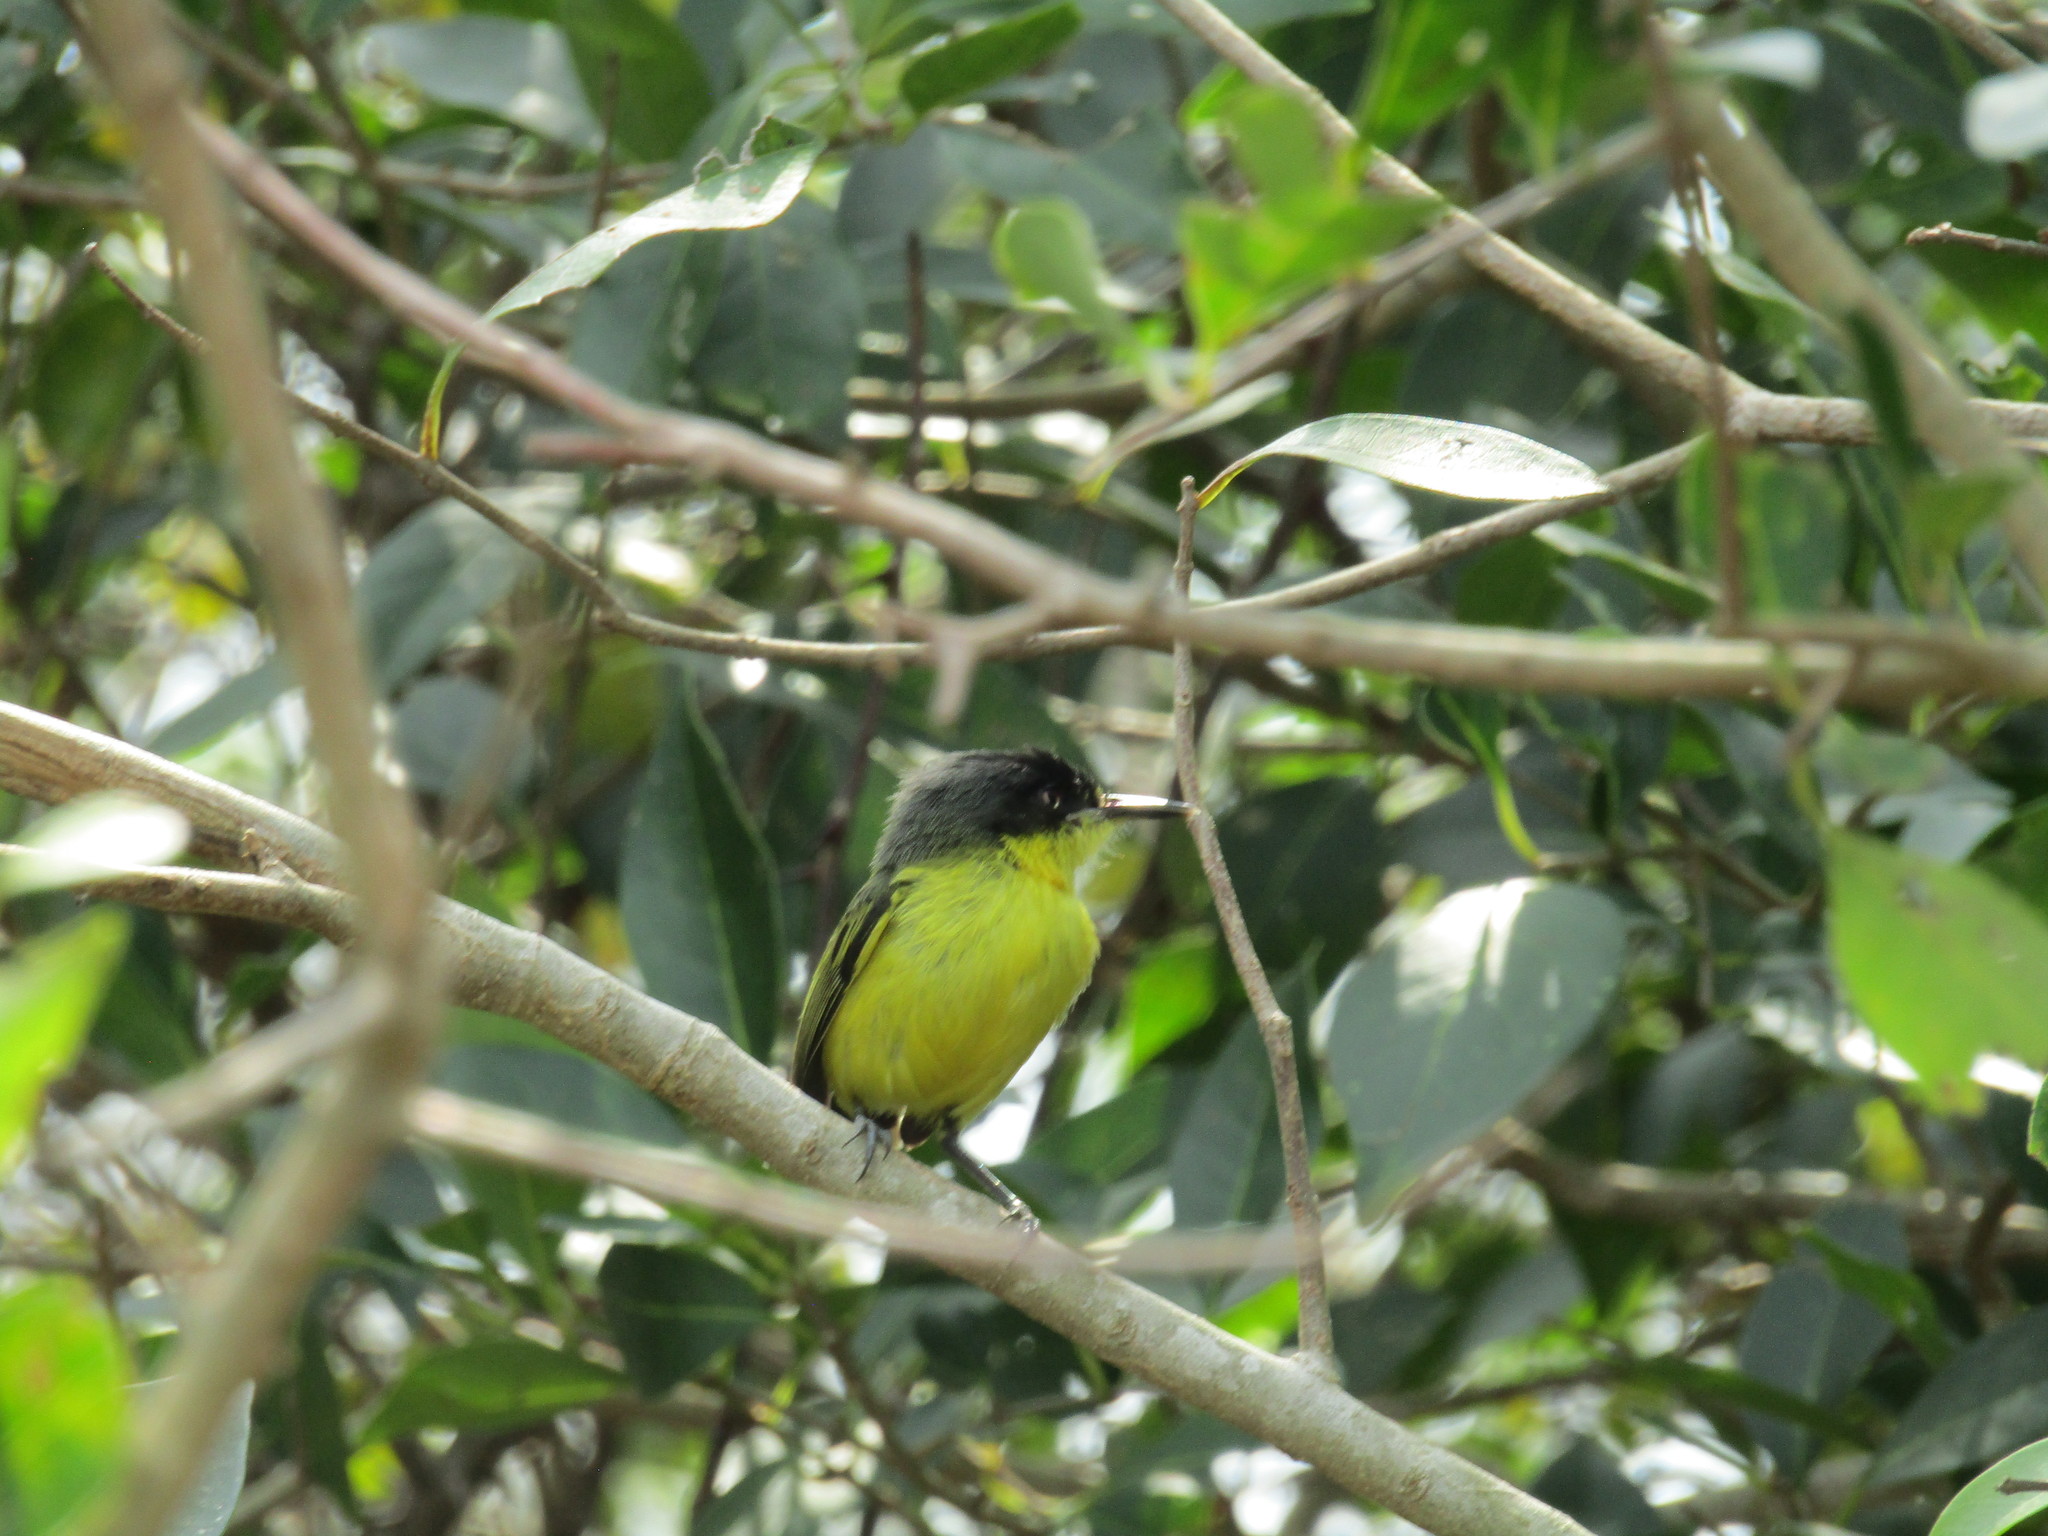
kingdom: Animalia
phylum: Chordata
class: Aves
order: Passeriformes
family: Tyrannidae
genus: Todirostrum
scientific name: Todirostrum cinereum
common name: Common tody-flycatcher
